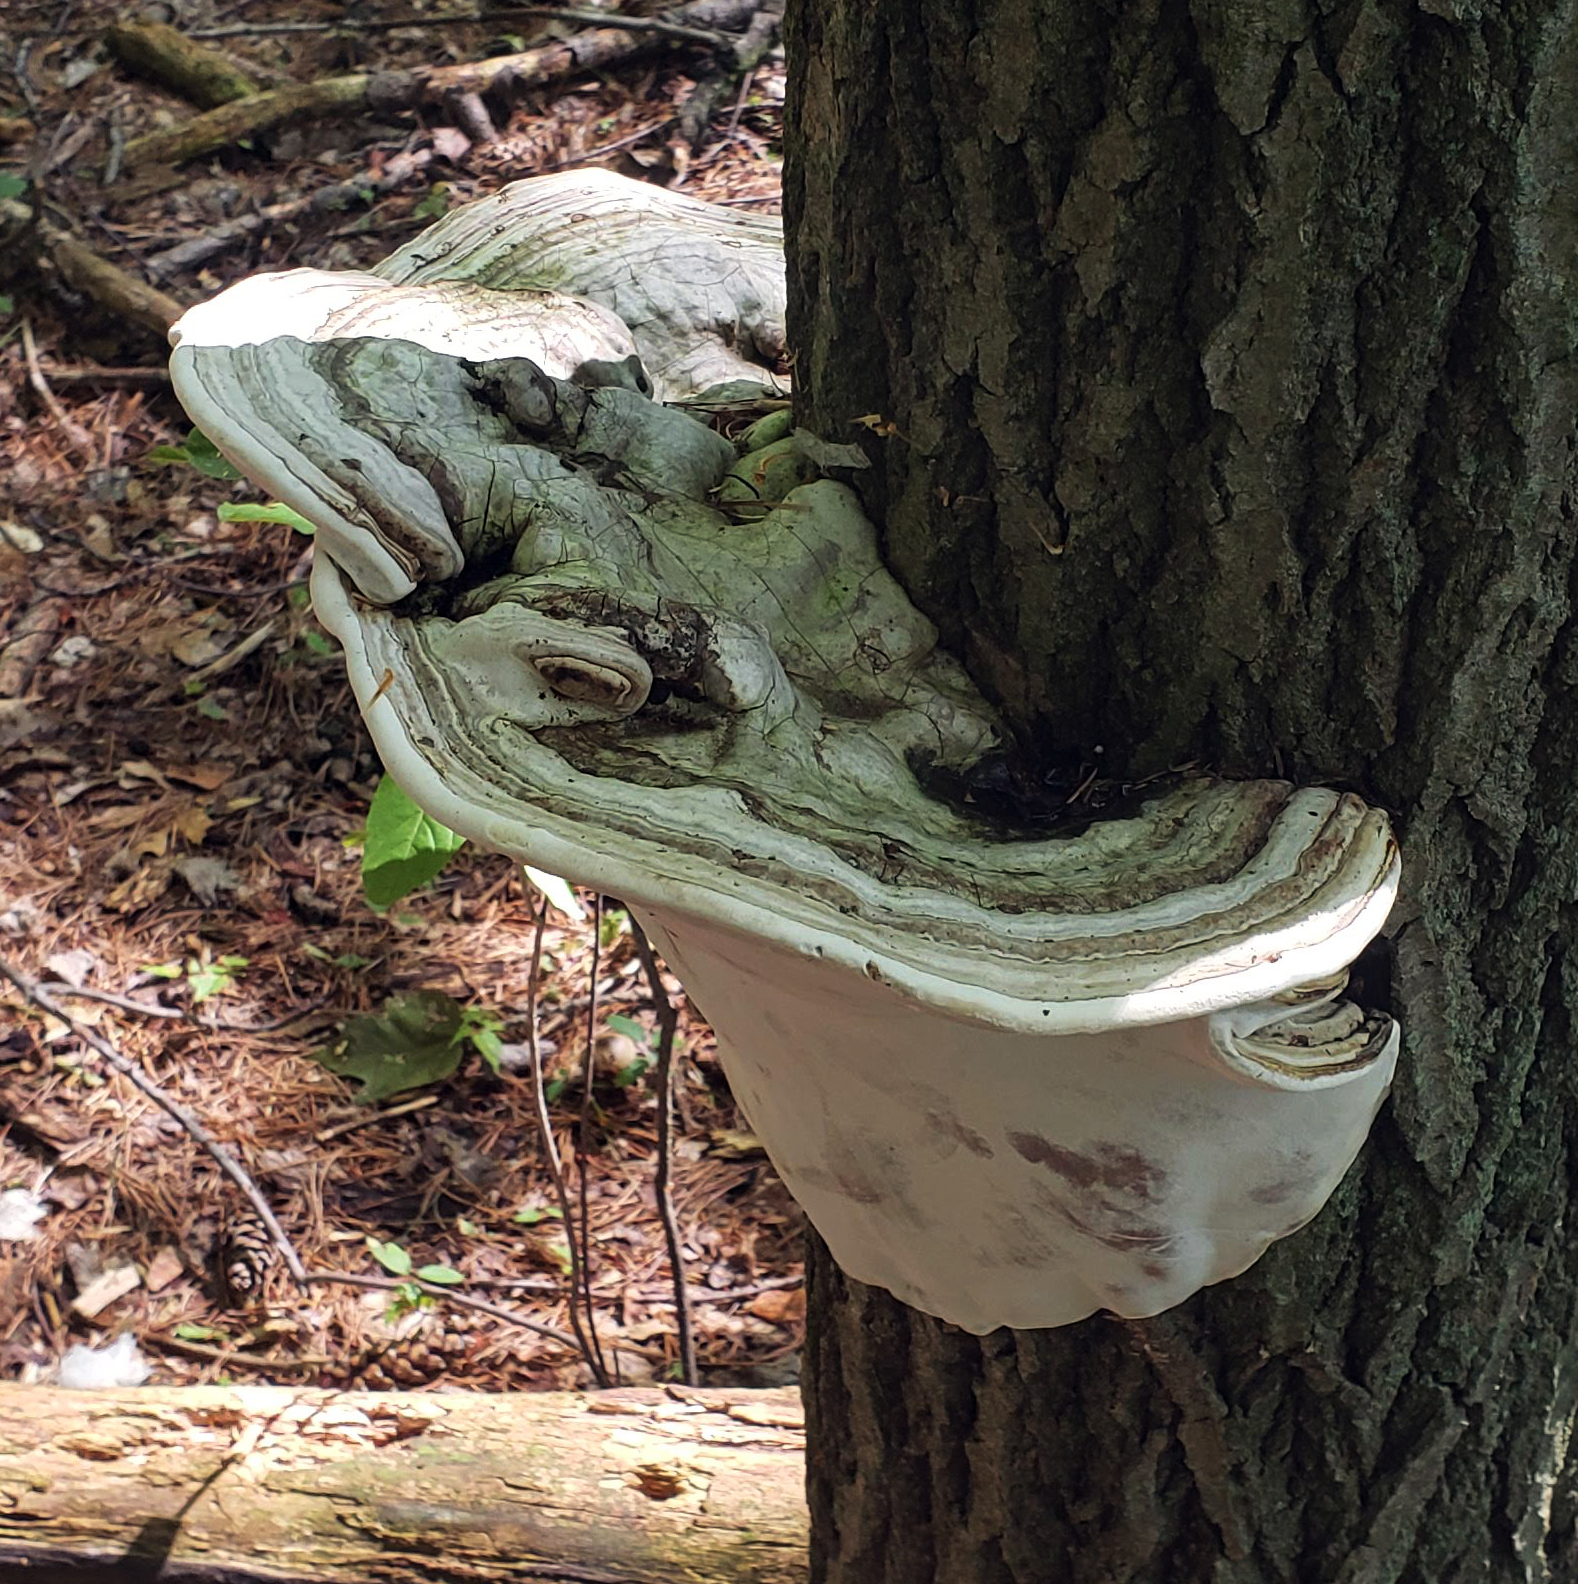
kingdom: Fungi
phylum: Basidiomycota
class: Agaricomycetes
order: Polyporales
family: Polyporaceae
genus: Ganoderma
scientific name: Ganoderma applanatum
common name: Artist's bracket
